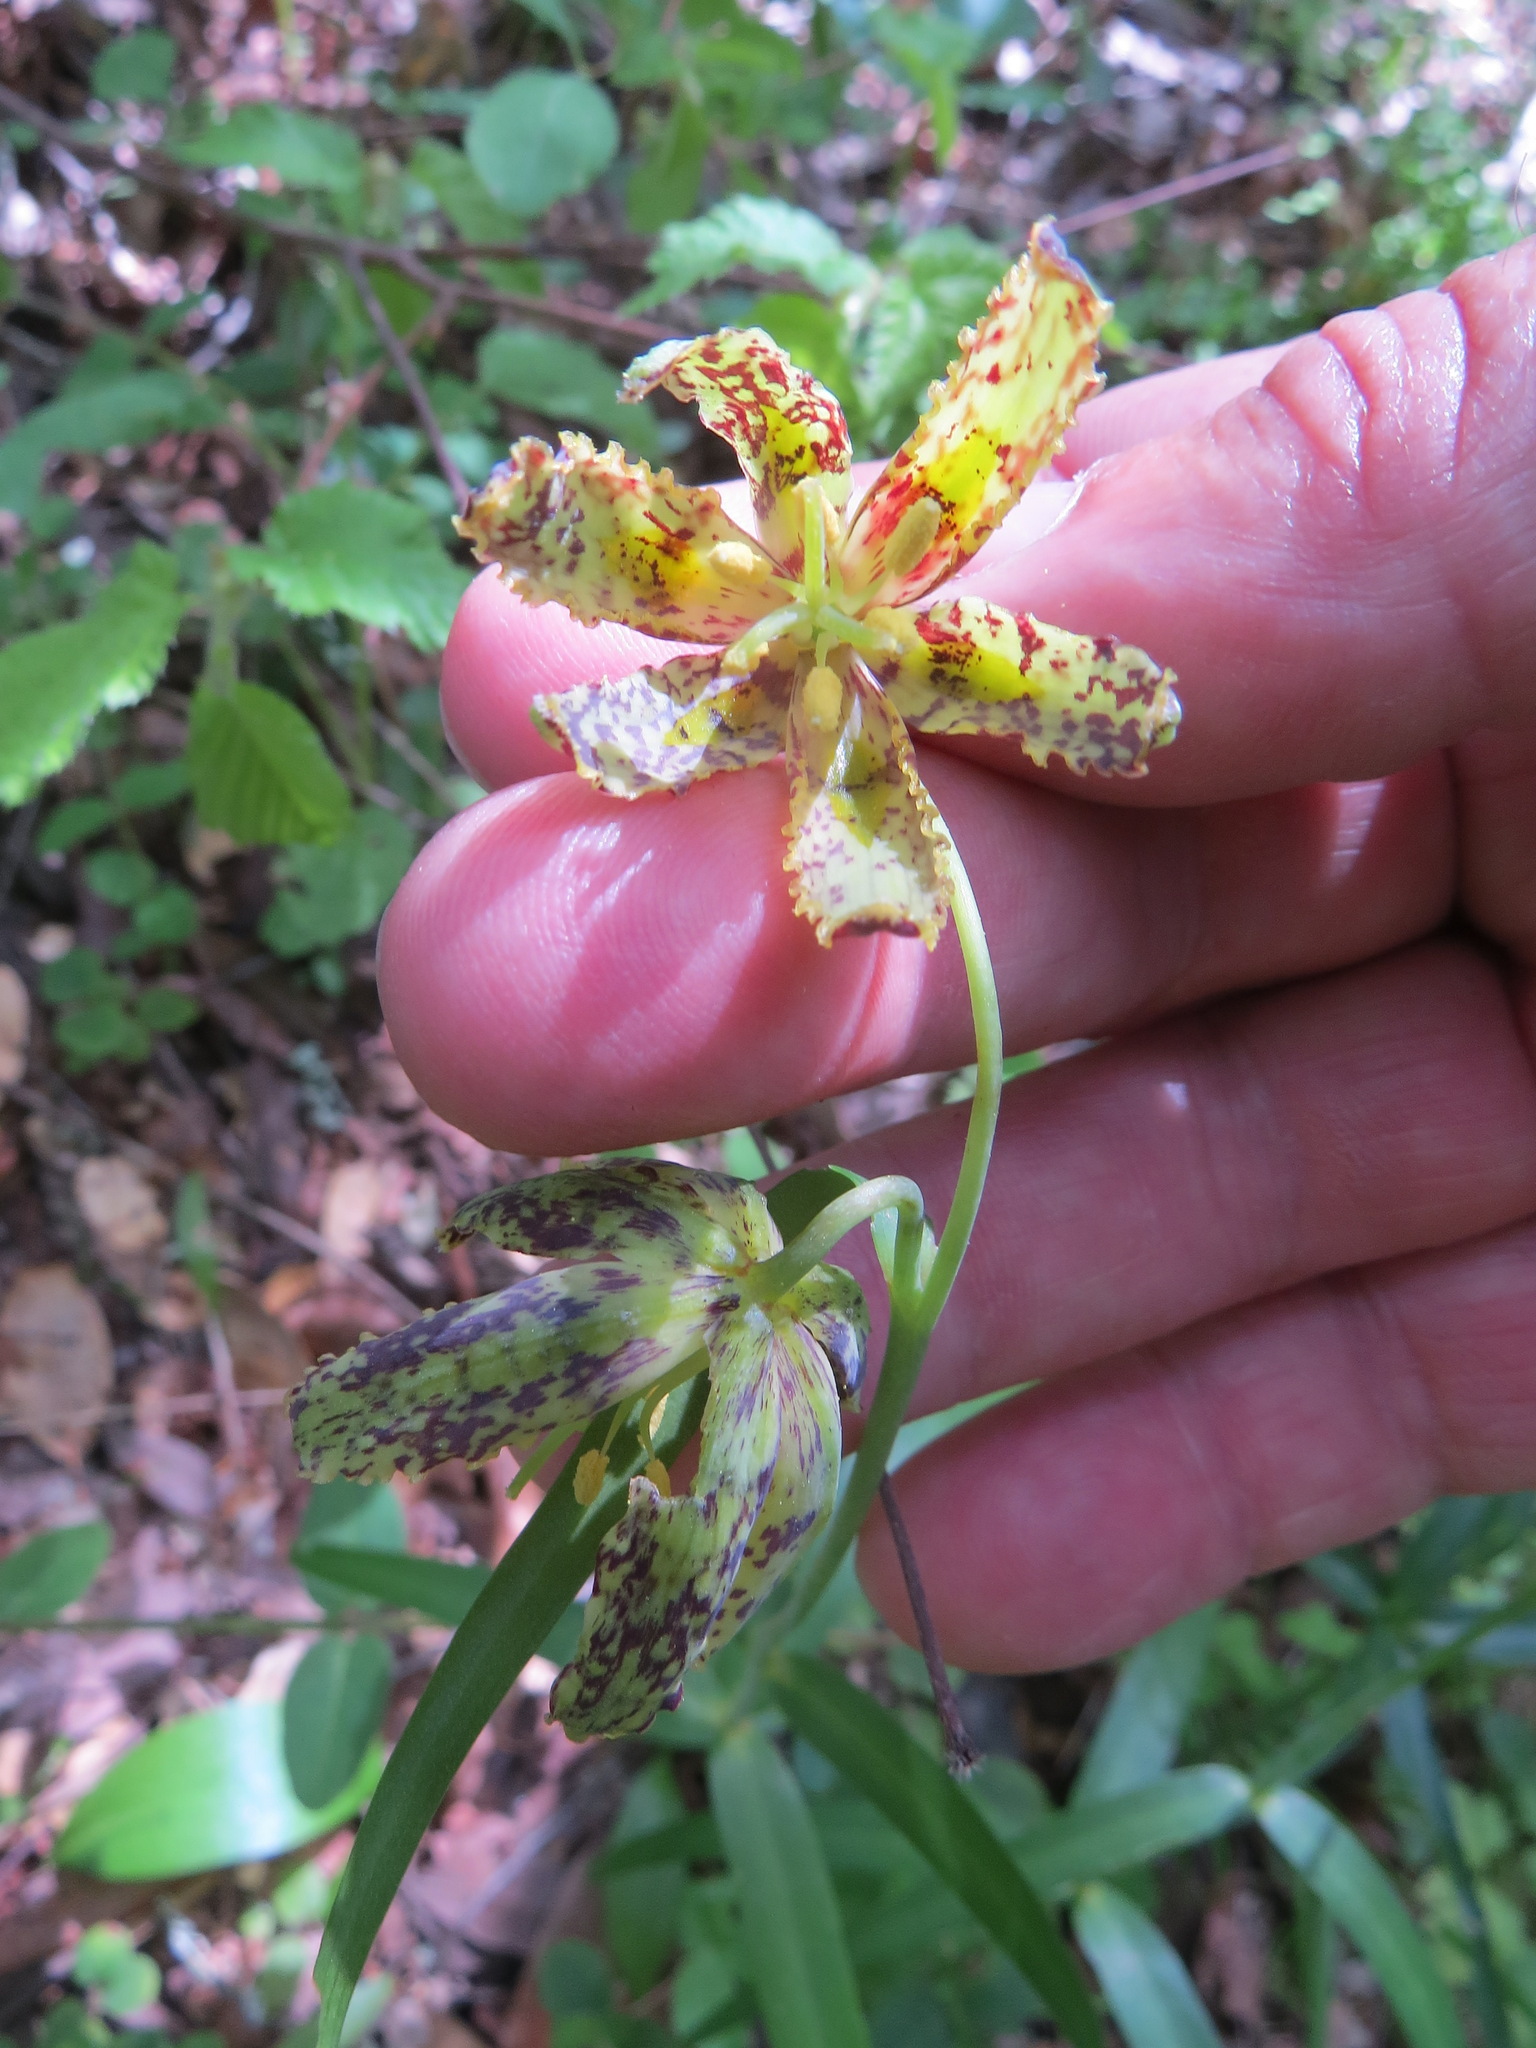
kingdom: Plantae
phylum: Tracheophyta
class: Liliopsida
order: Liliales
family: Liliaceae
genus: Fritillaria
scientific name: Fritillaria affinis
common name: Ojai fritillary
